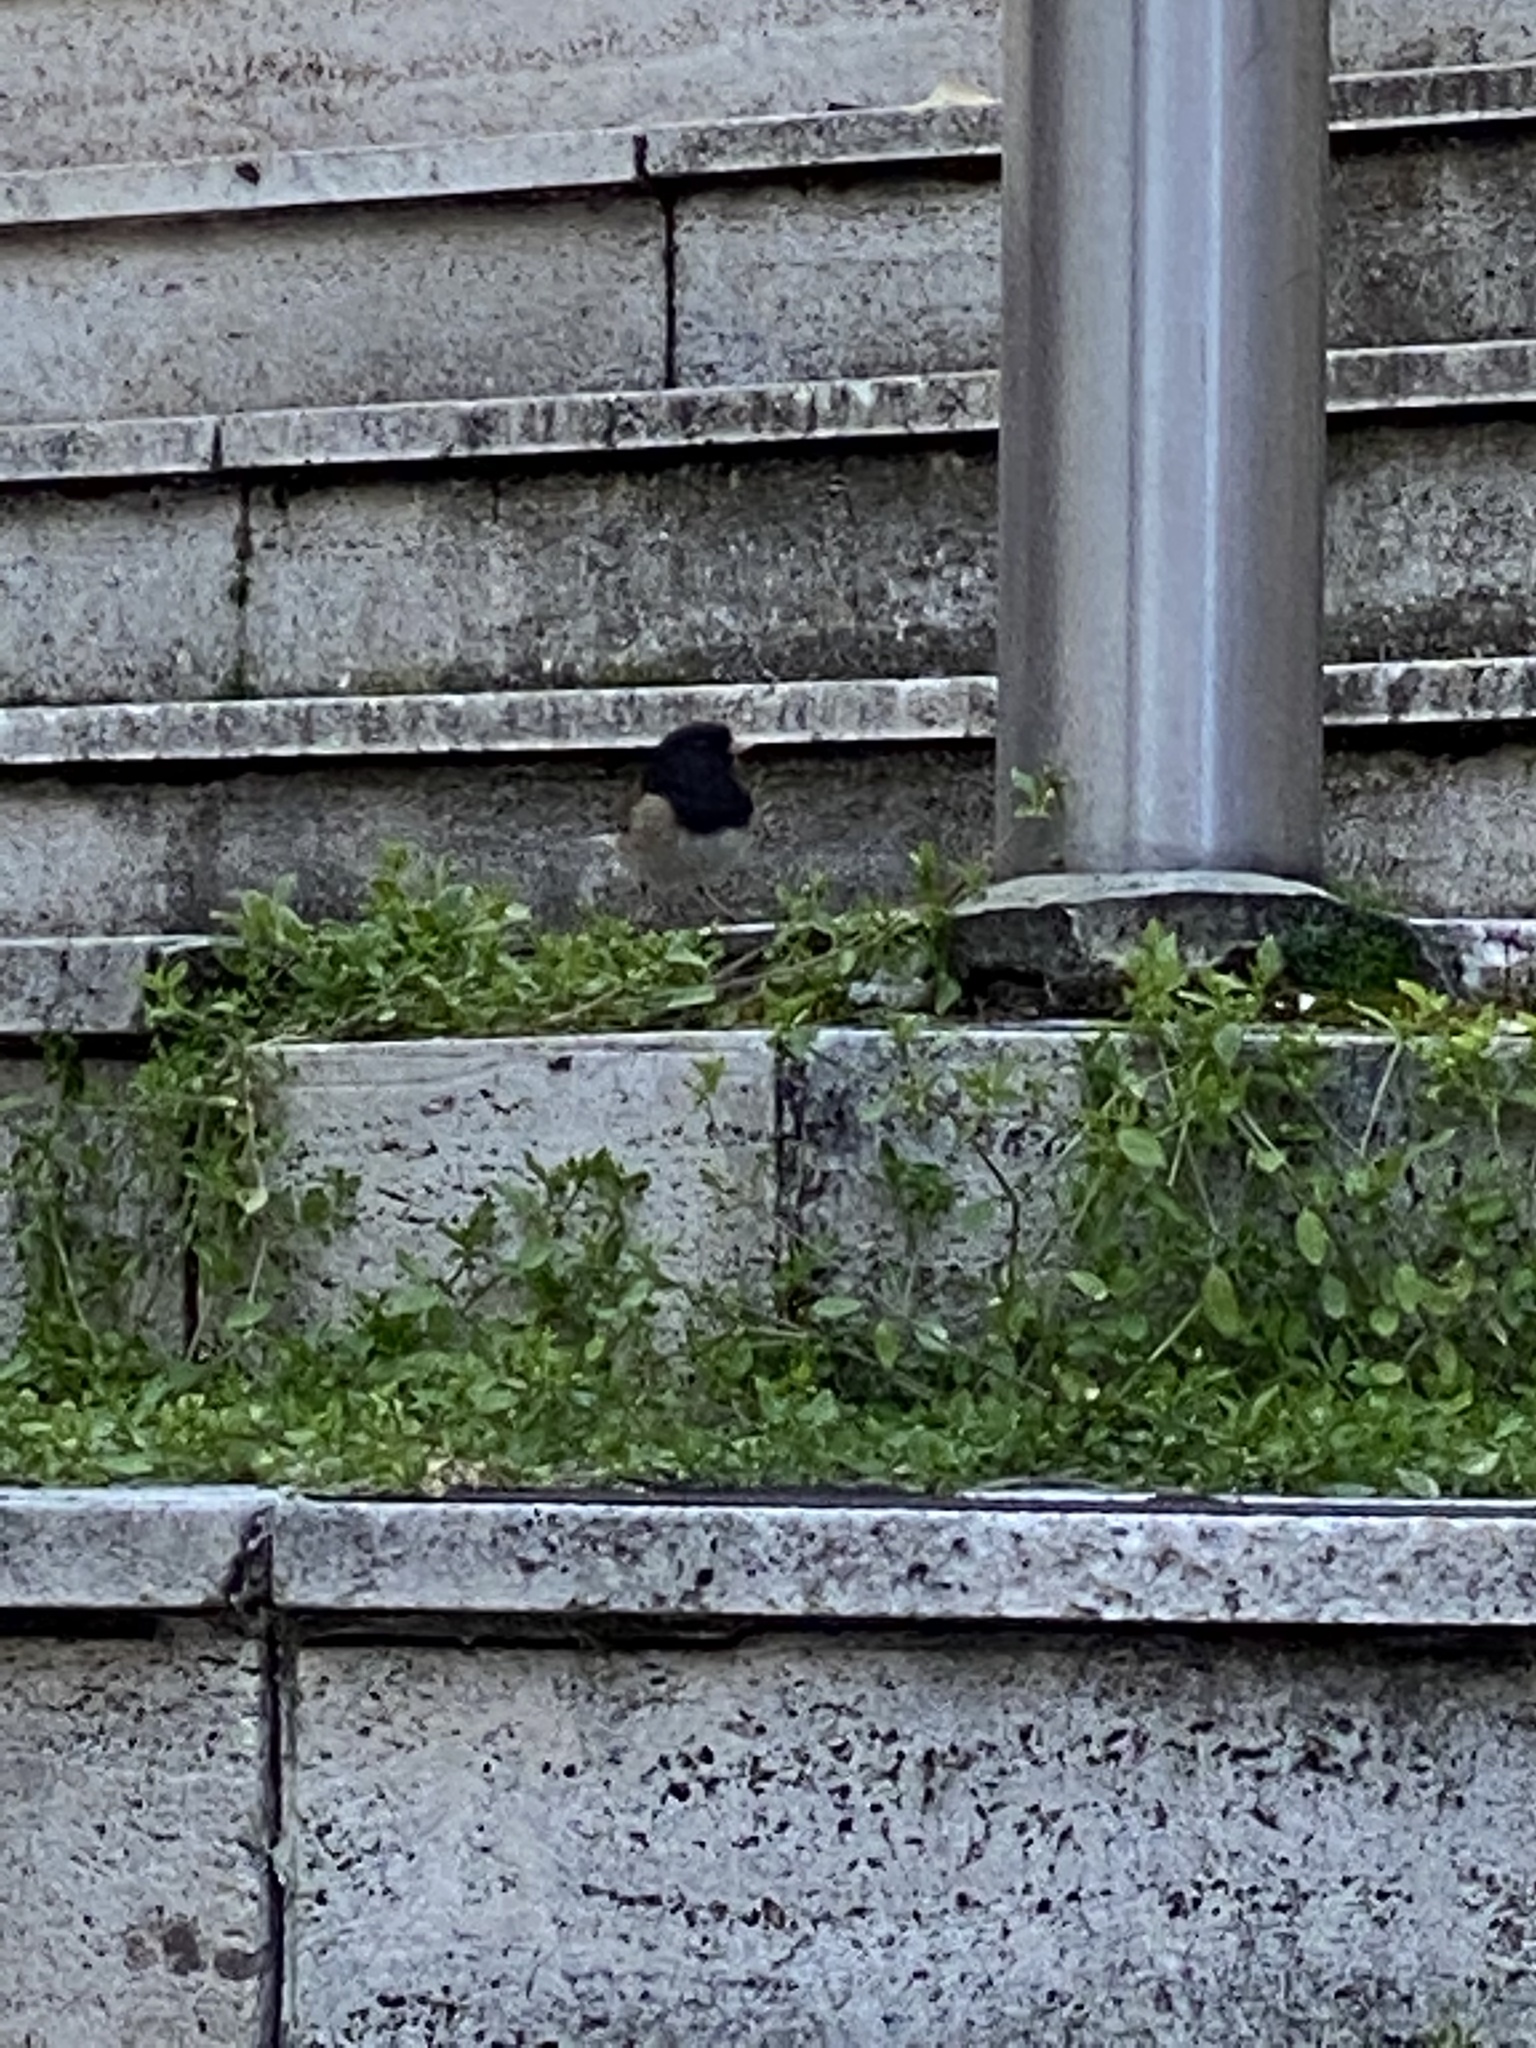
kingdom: Animalia
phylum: Chordata
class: Aves
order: Passeriformes
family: Passerellidae
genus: Junco
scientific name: Junco hyemalis
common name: Dark-eyed junco
